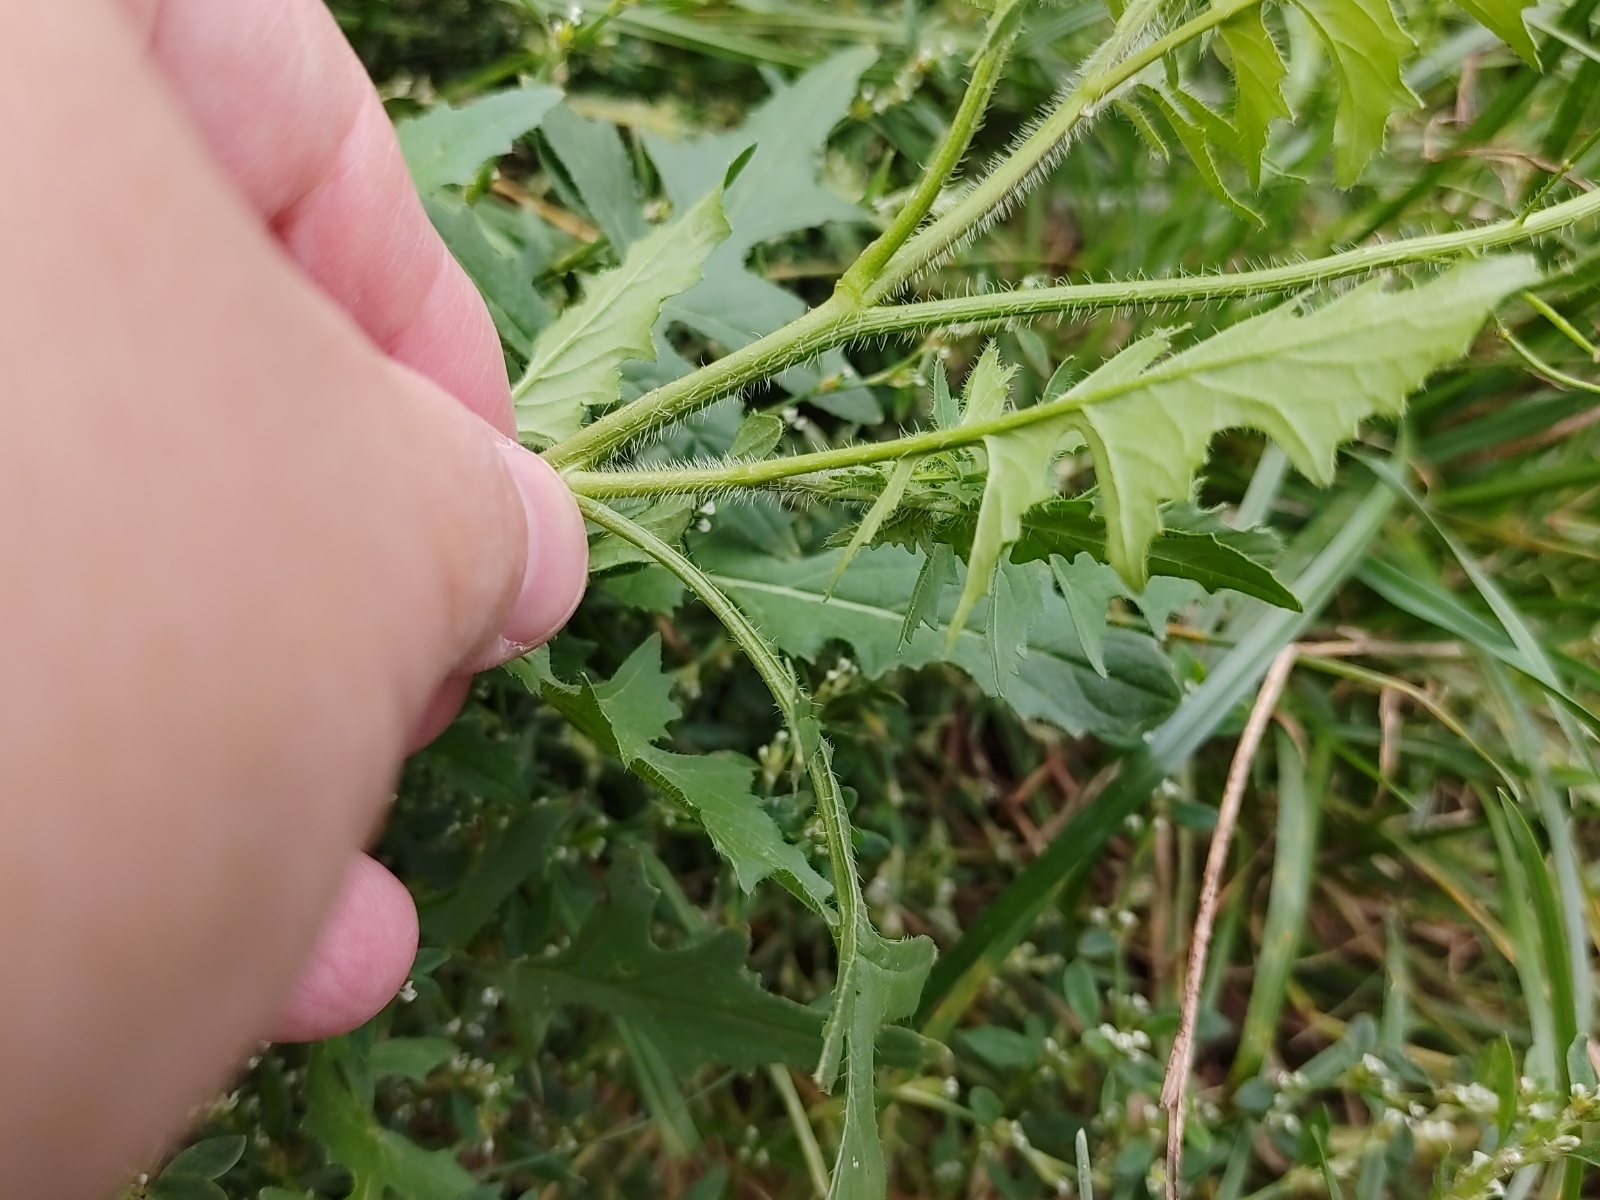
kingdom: Plantae
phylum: Tracheophyta
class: Magnoliopsida
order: Brassicales
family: Brassicaceae
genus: Sisymbrium
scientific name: Sisymbrium loeselii
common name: False london-rocket
